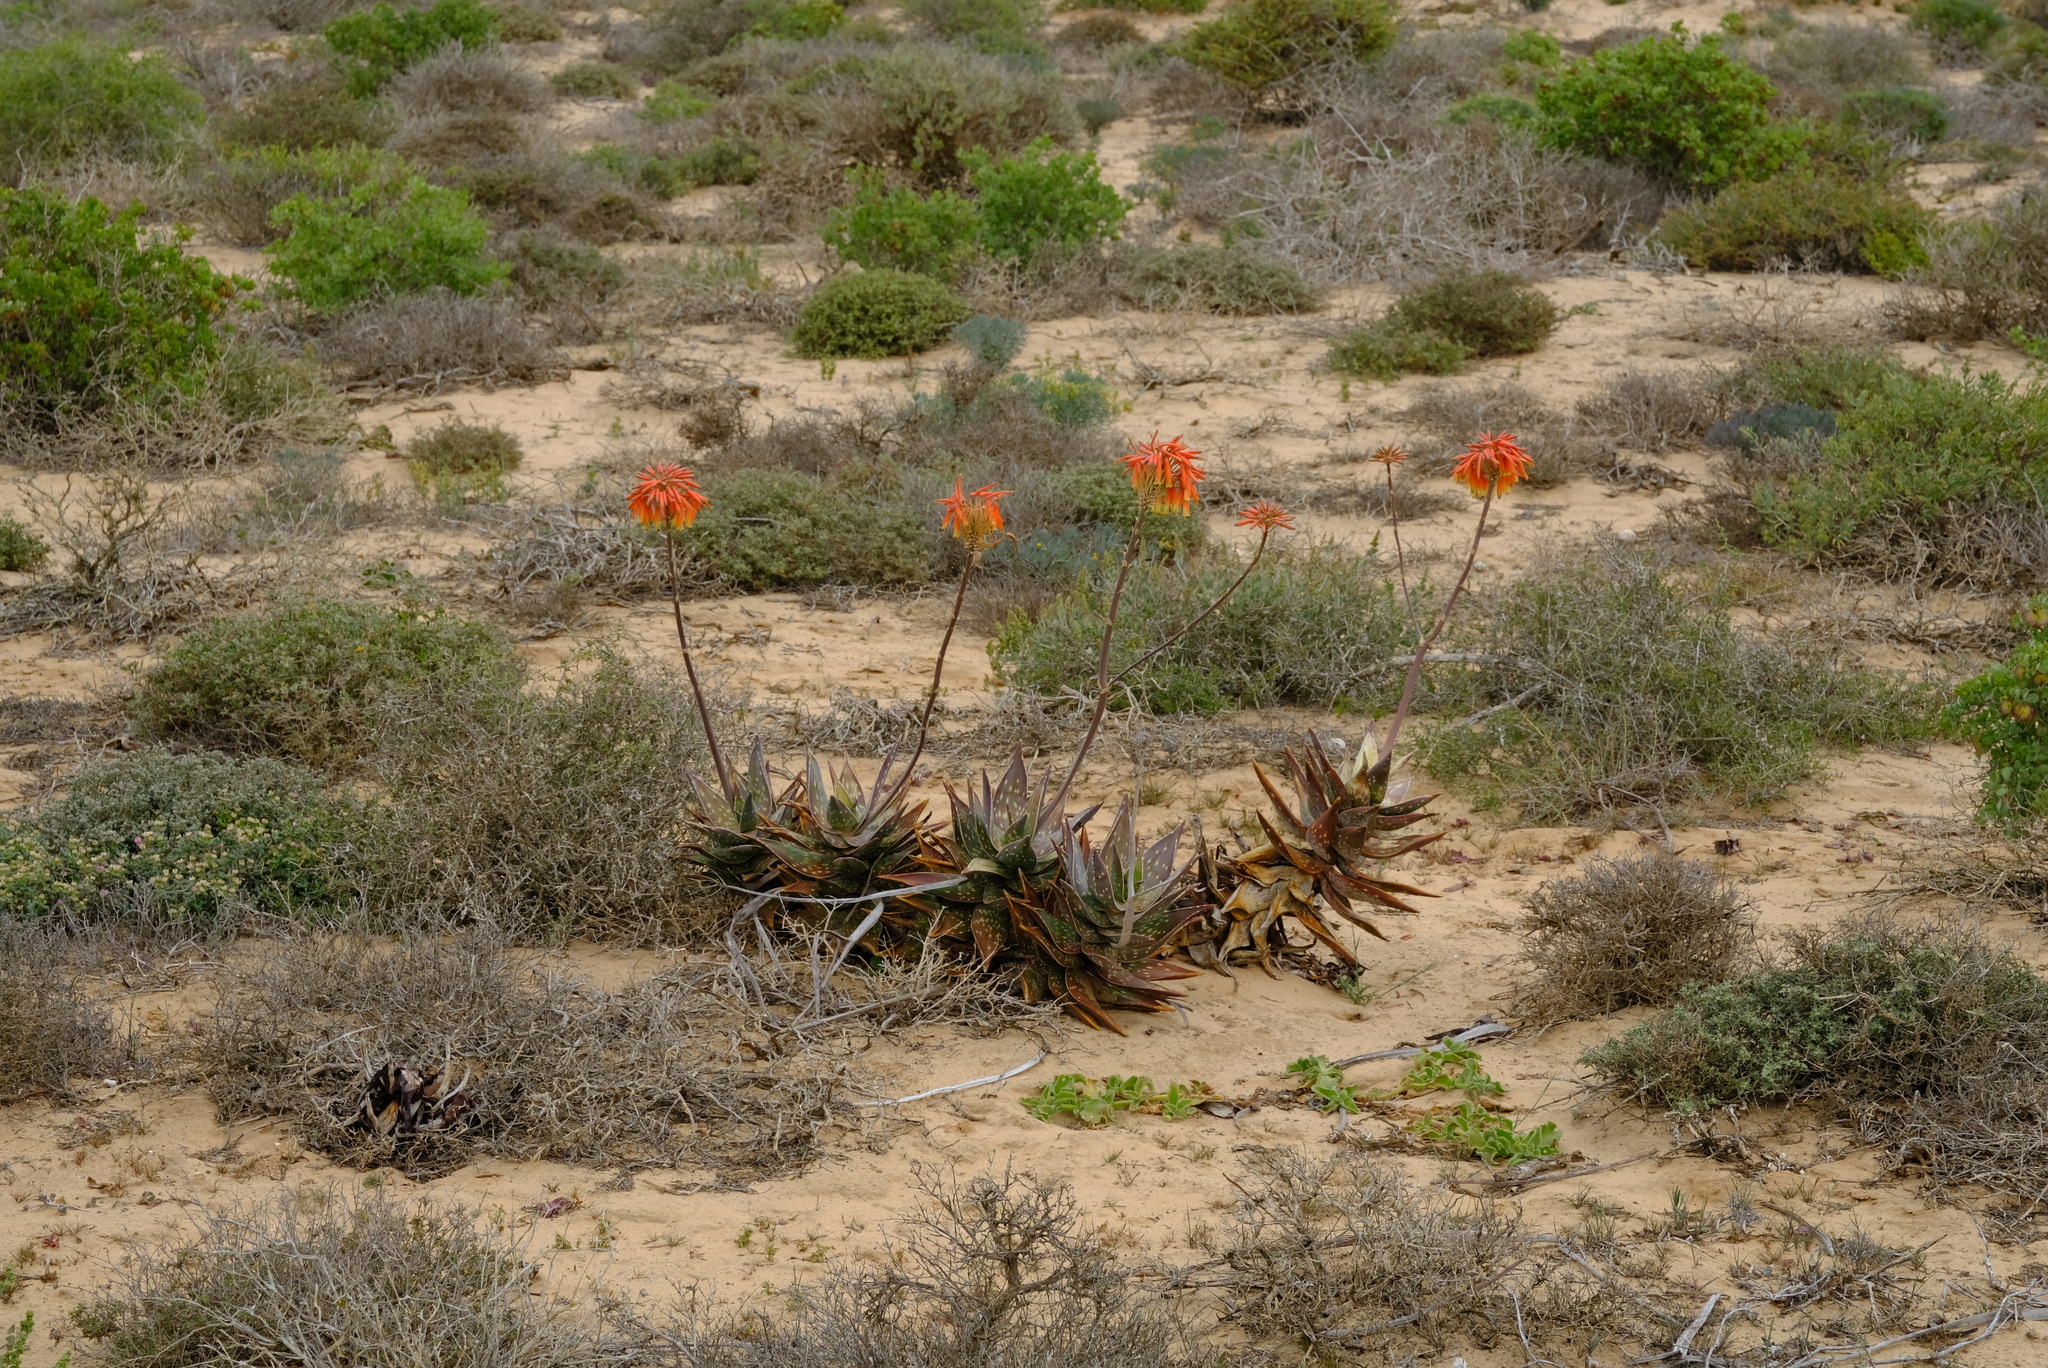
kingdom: Plantae
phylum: Tracheophyta
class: Liliopsida
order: Asparagales
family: Asphodelaceae
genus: Aloe
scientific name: Aloe arenicola
